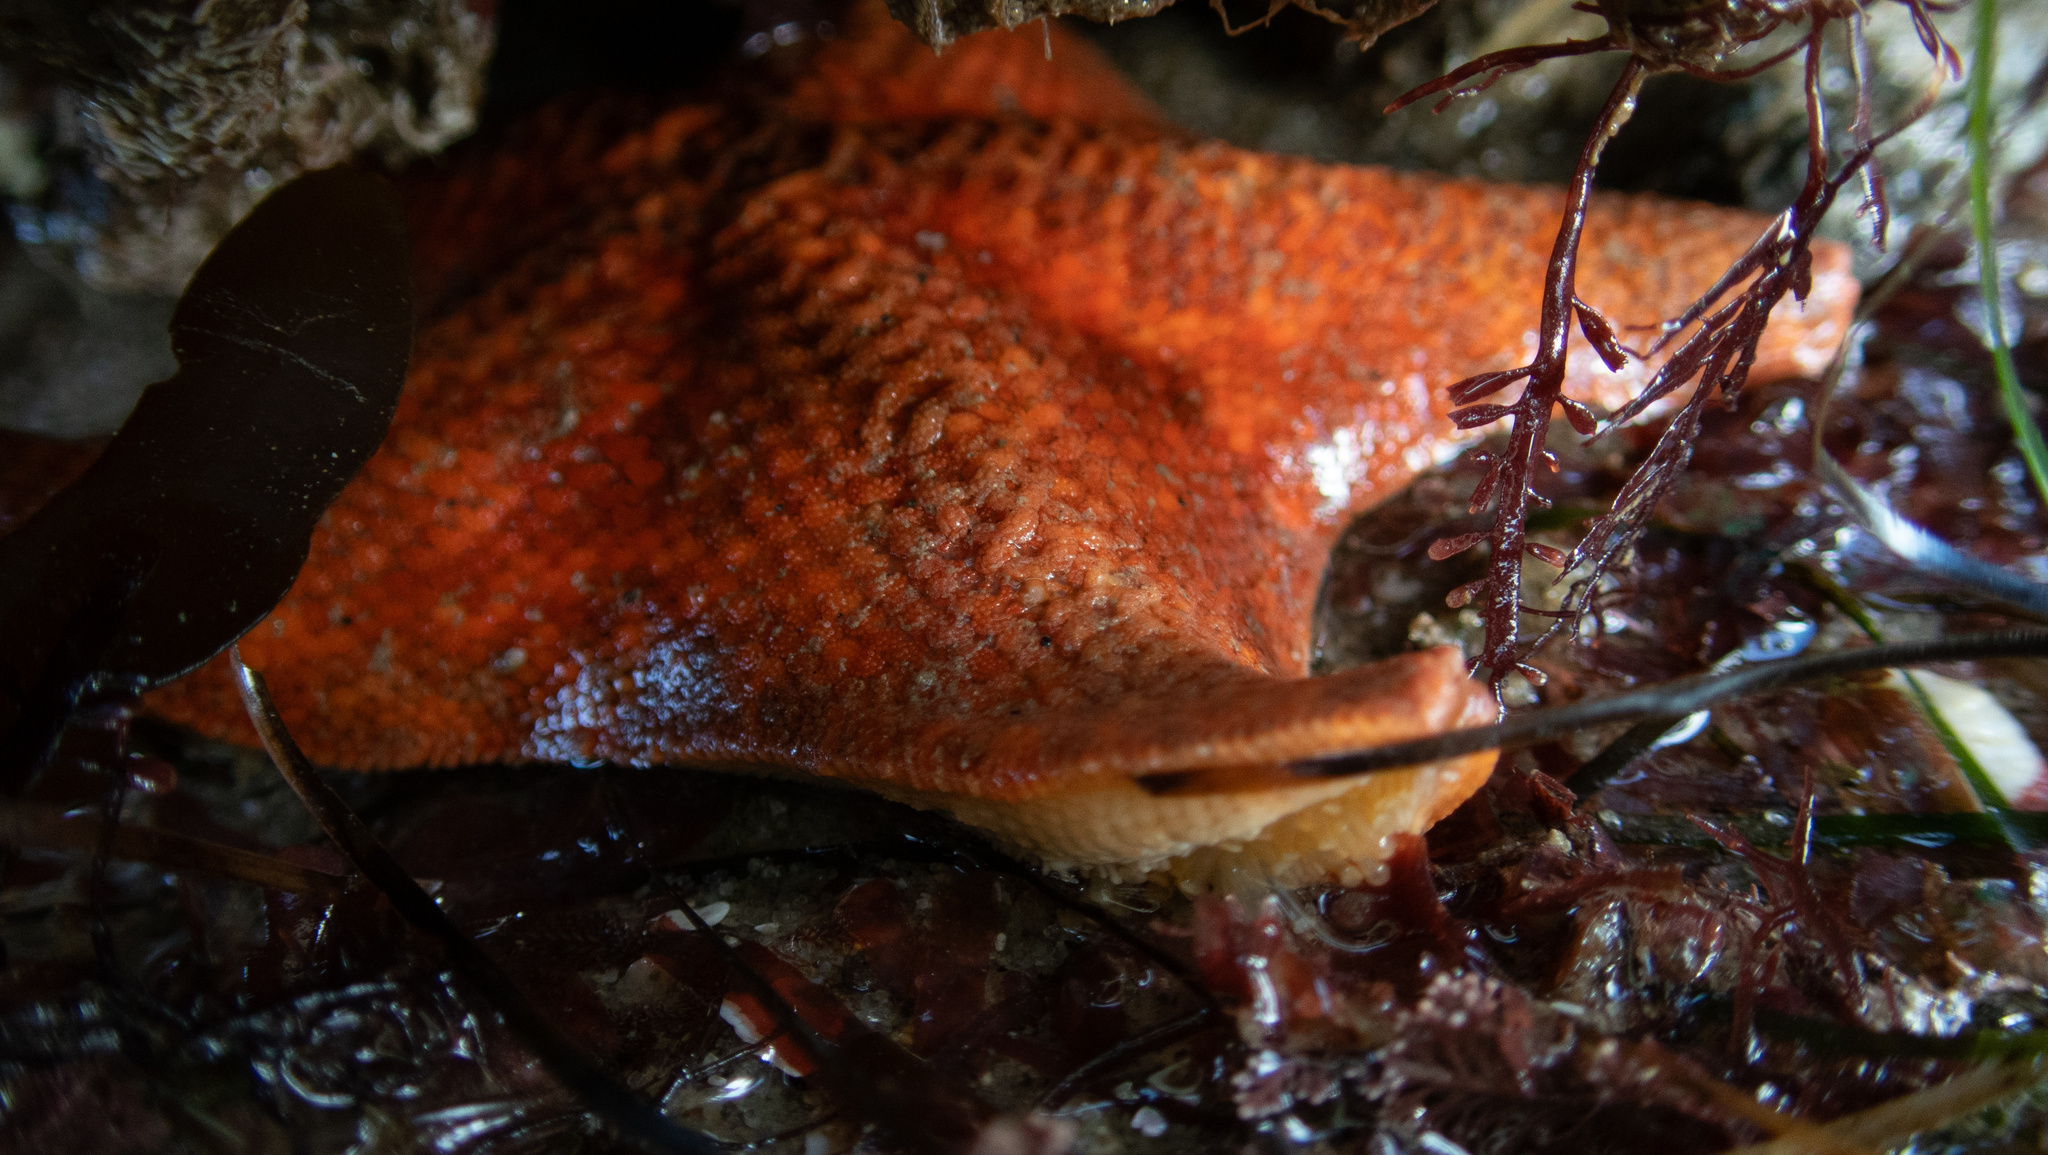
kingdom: Animalia
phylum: Echinodermata
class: Asteroidea
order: Valvatida
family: Asterinidae
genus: Patiria
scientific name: Patiria miniata
